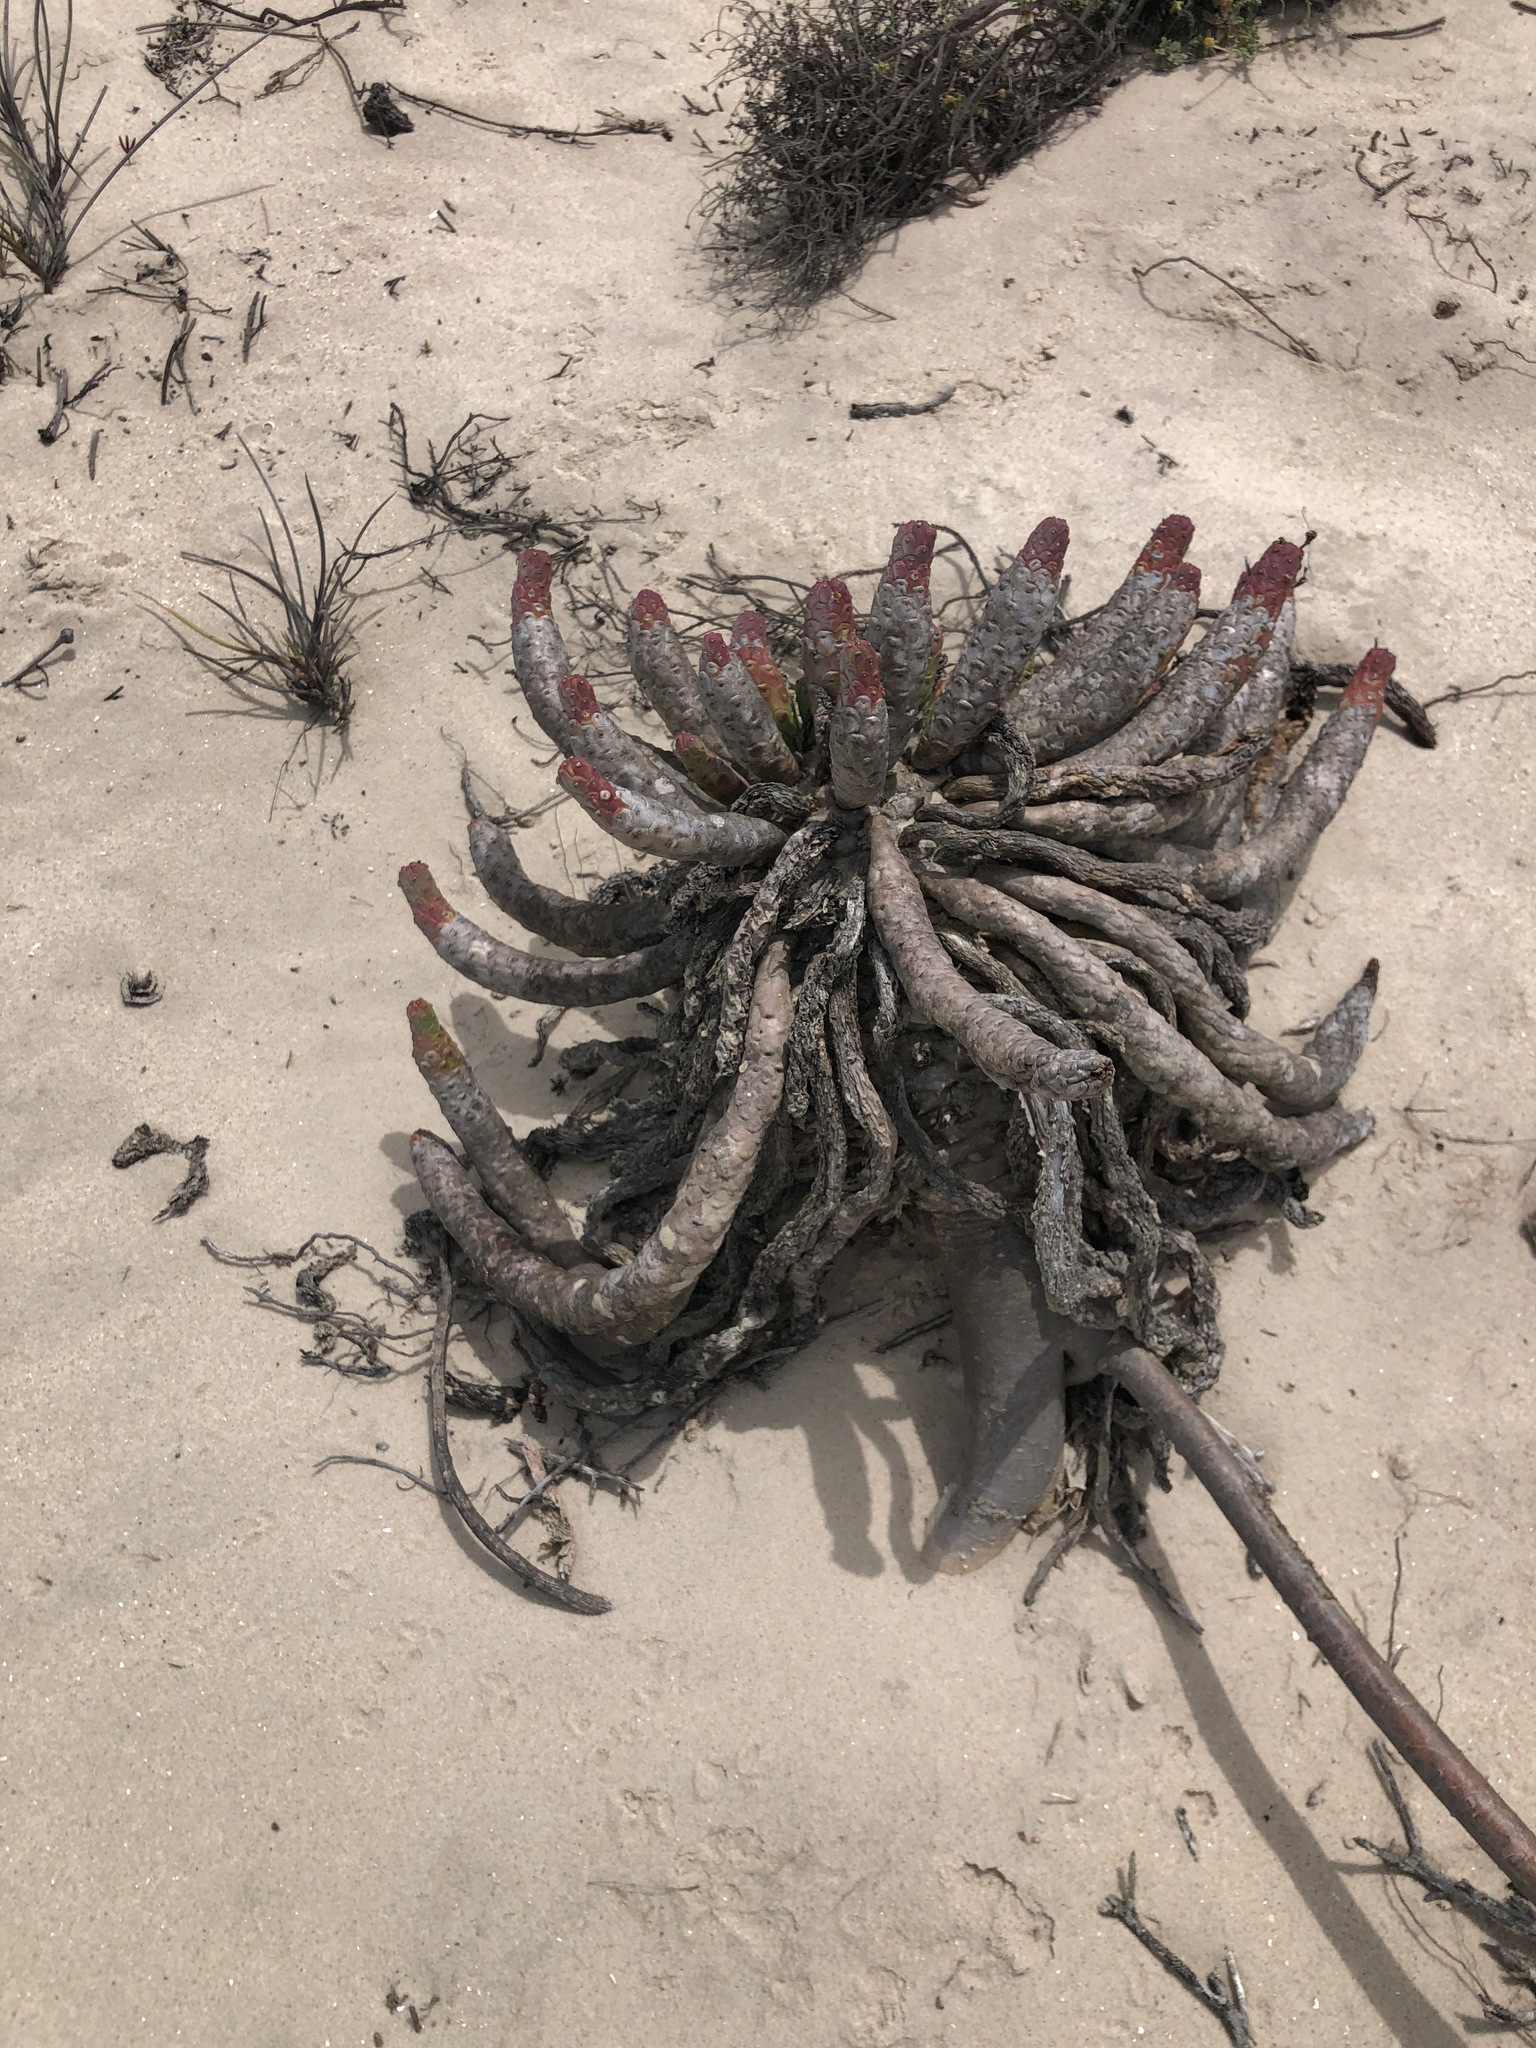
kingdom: Plantae
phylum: Tracheophyta
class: Magnoliopsida
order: Malpighiales
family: Euphorbiaceae
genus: Euphorbia
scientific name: Euphorbia caput-medusae
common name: Medusa's-head
